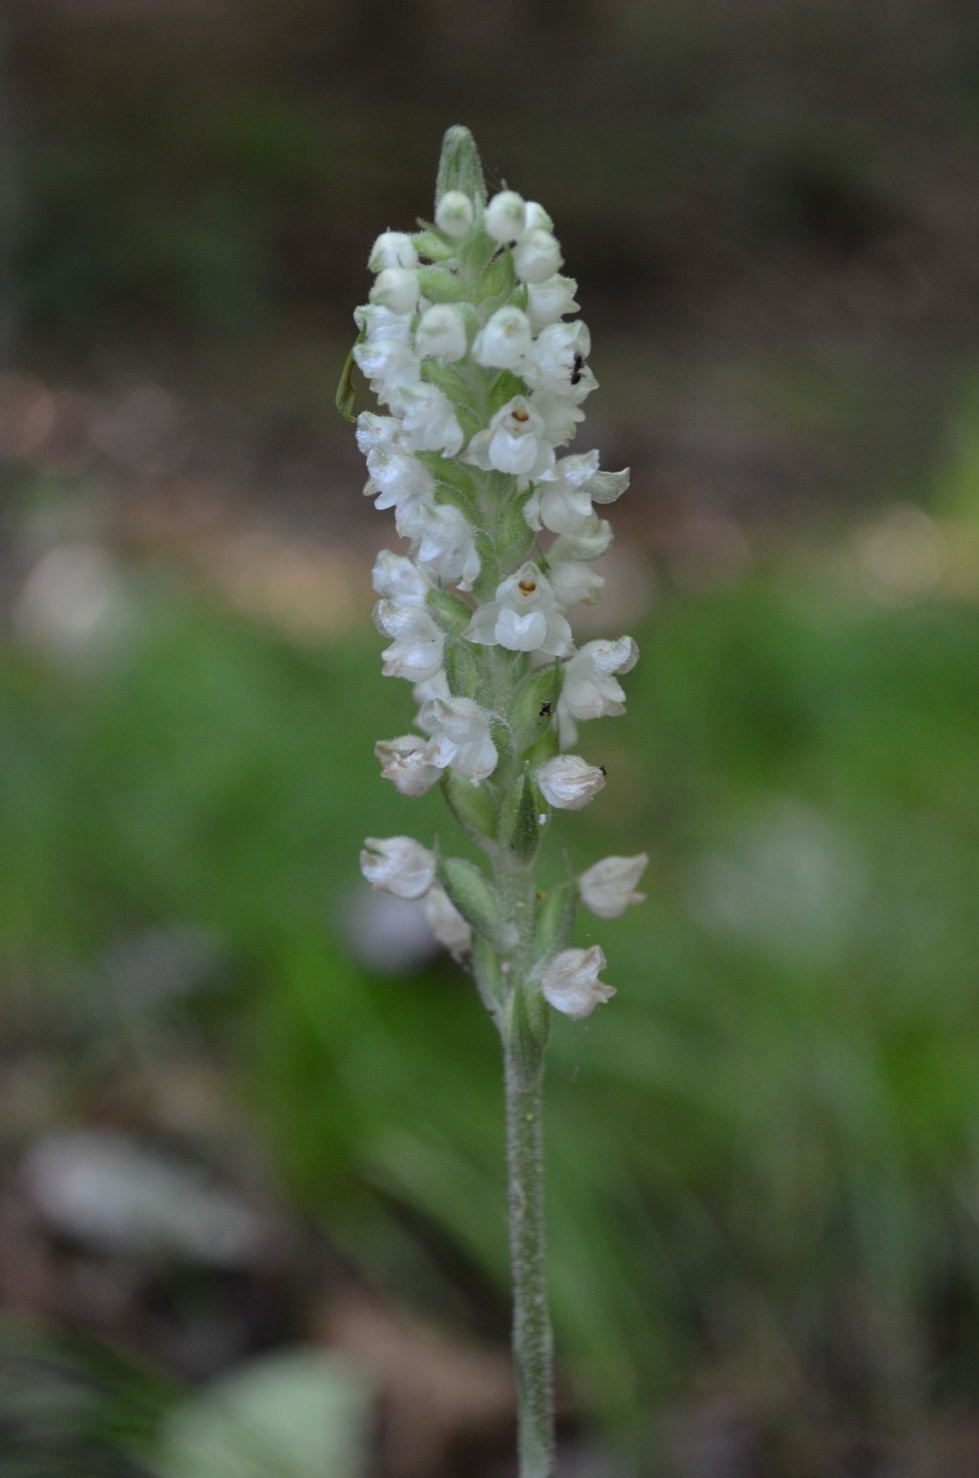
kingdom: Plantae
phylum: Tracheophyta
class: Liliopsida
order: Asparagales
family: Orchidaceae
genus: Goodyera
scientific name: Goodyera pubescens
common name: Downy rattlesnake-plantain
